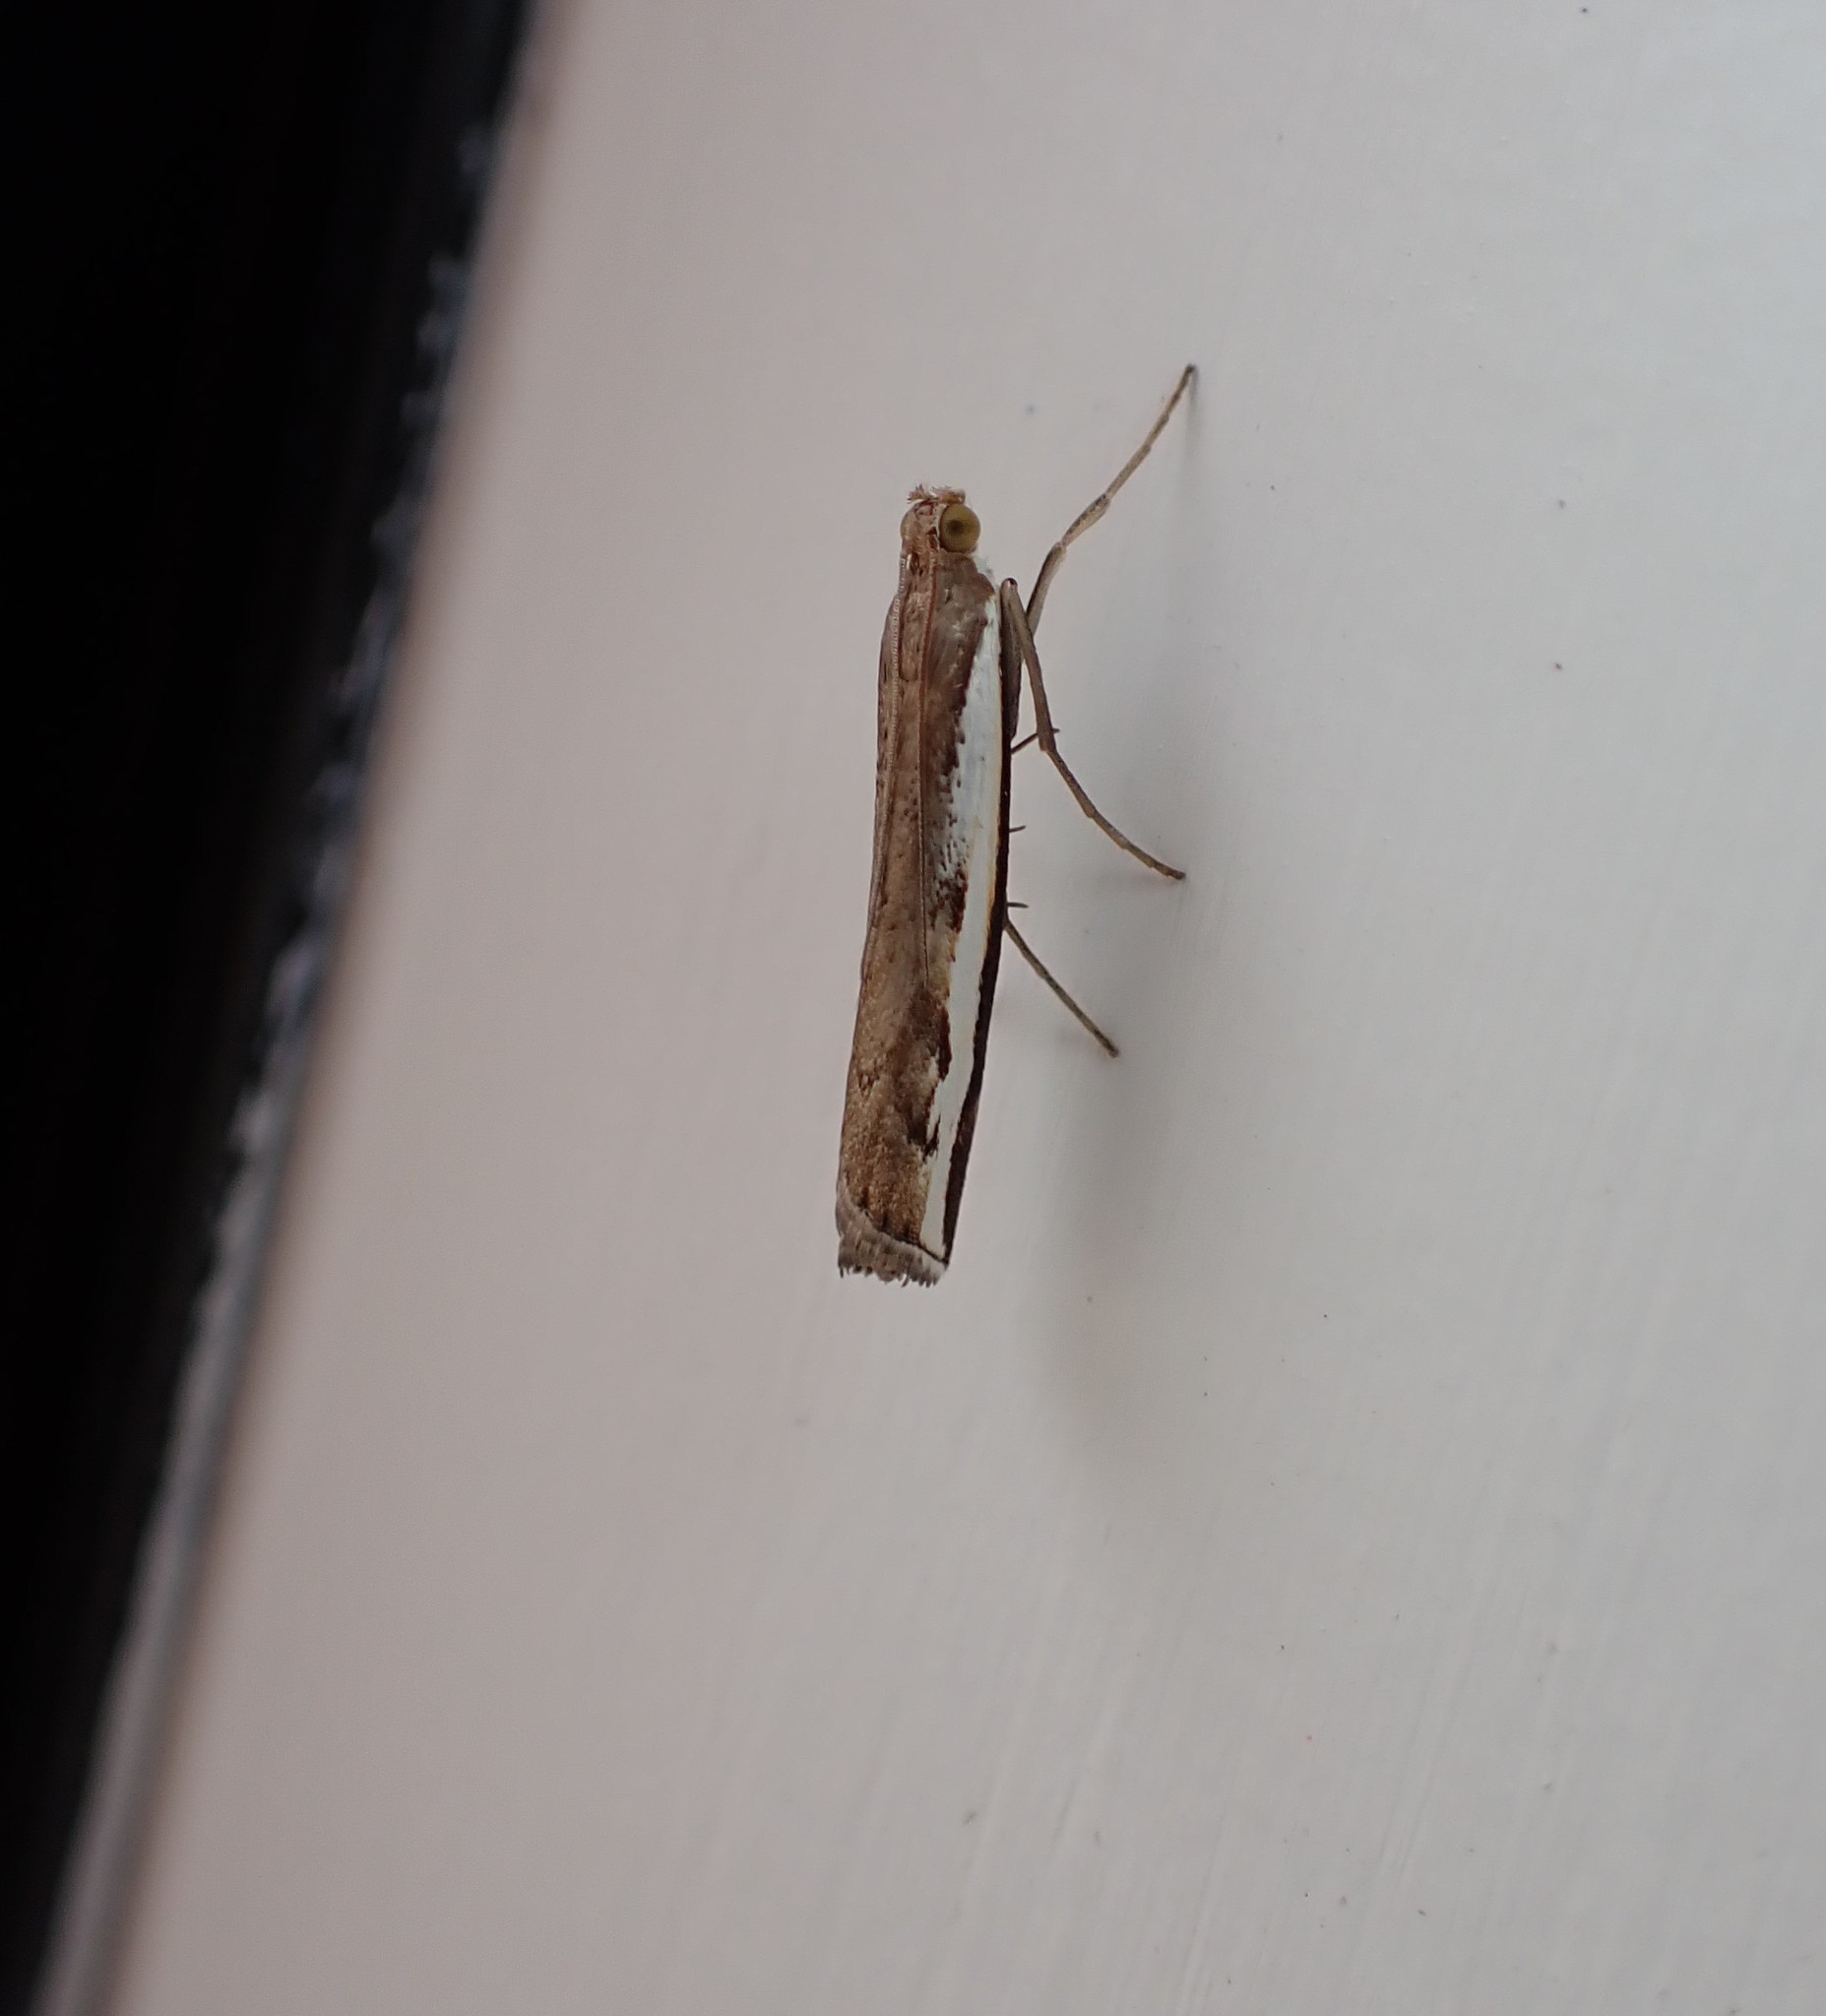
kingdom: Animalia
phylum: Arthropoda
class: Insecta
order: Lepidoptera
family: Crambidae
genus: Orocrambus
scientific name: Orocrambus flexuosellus
